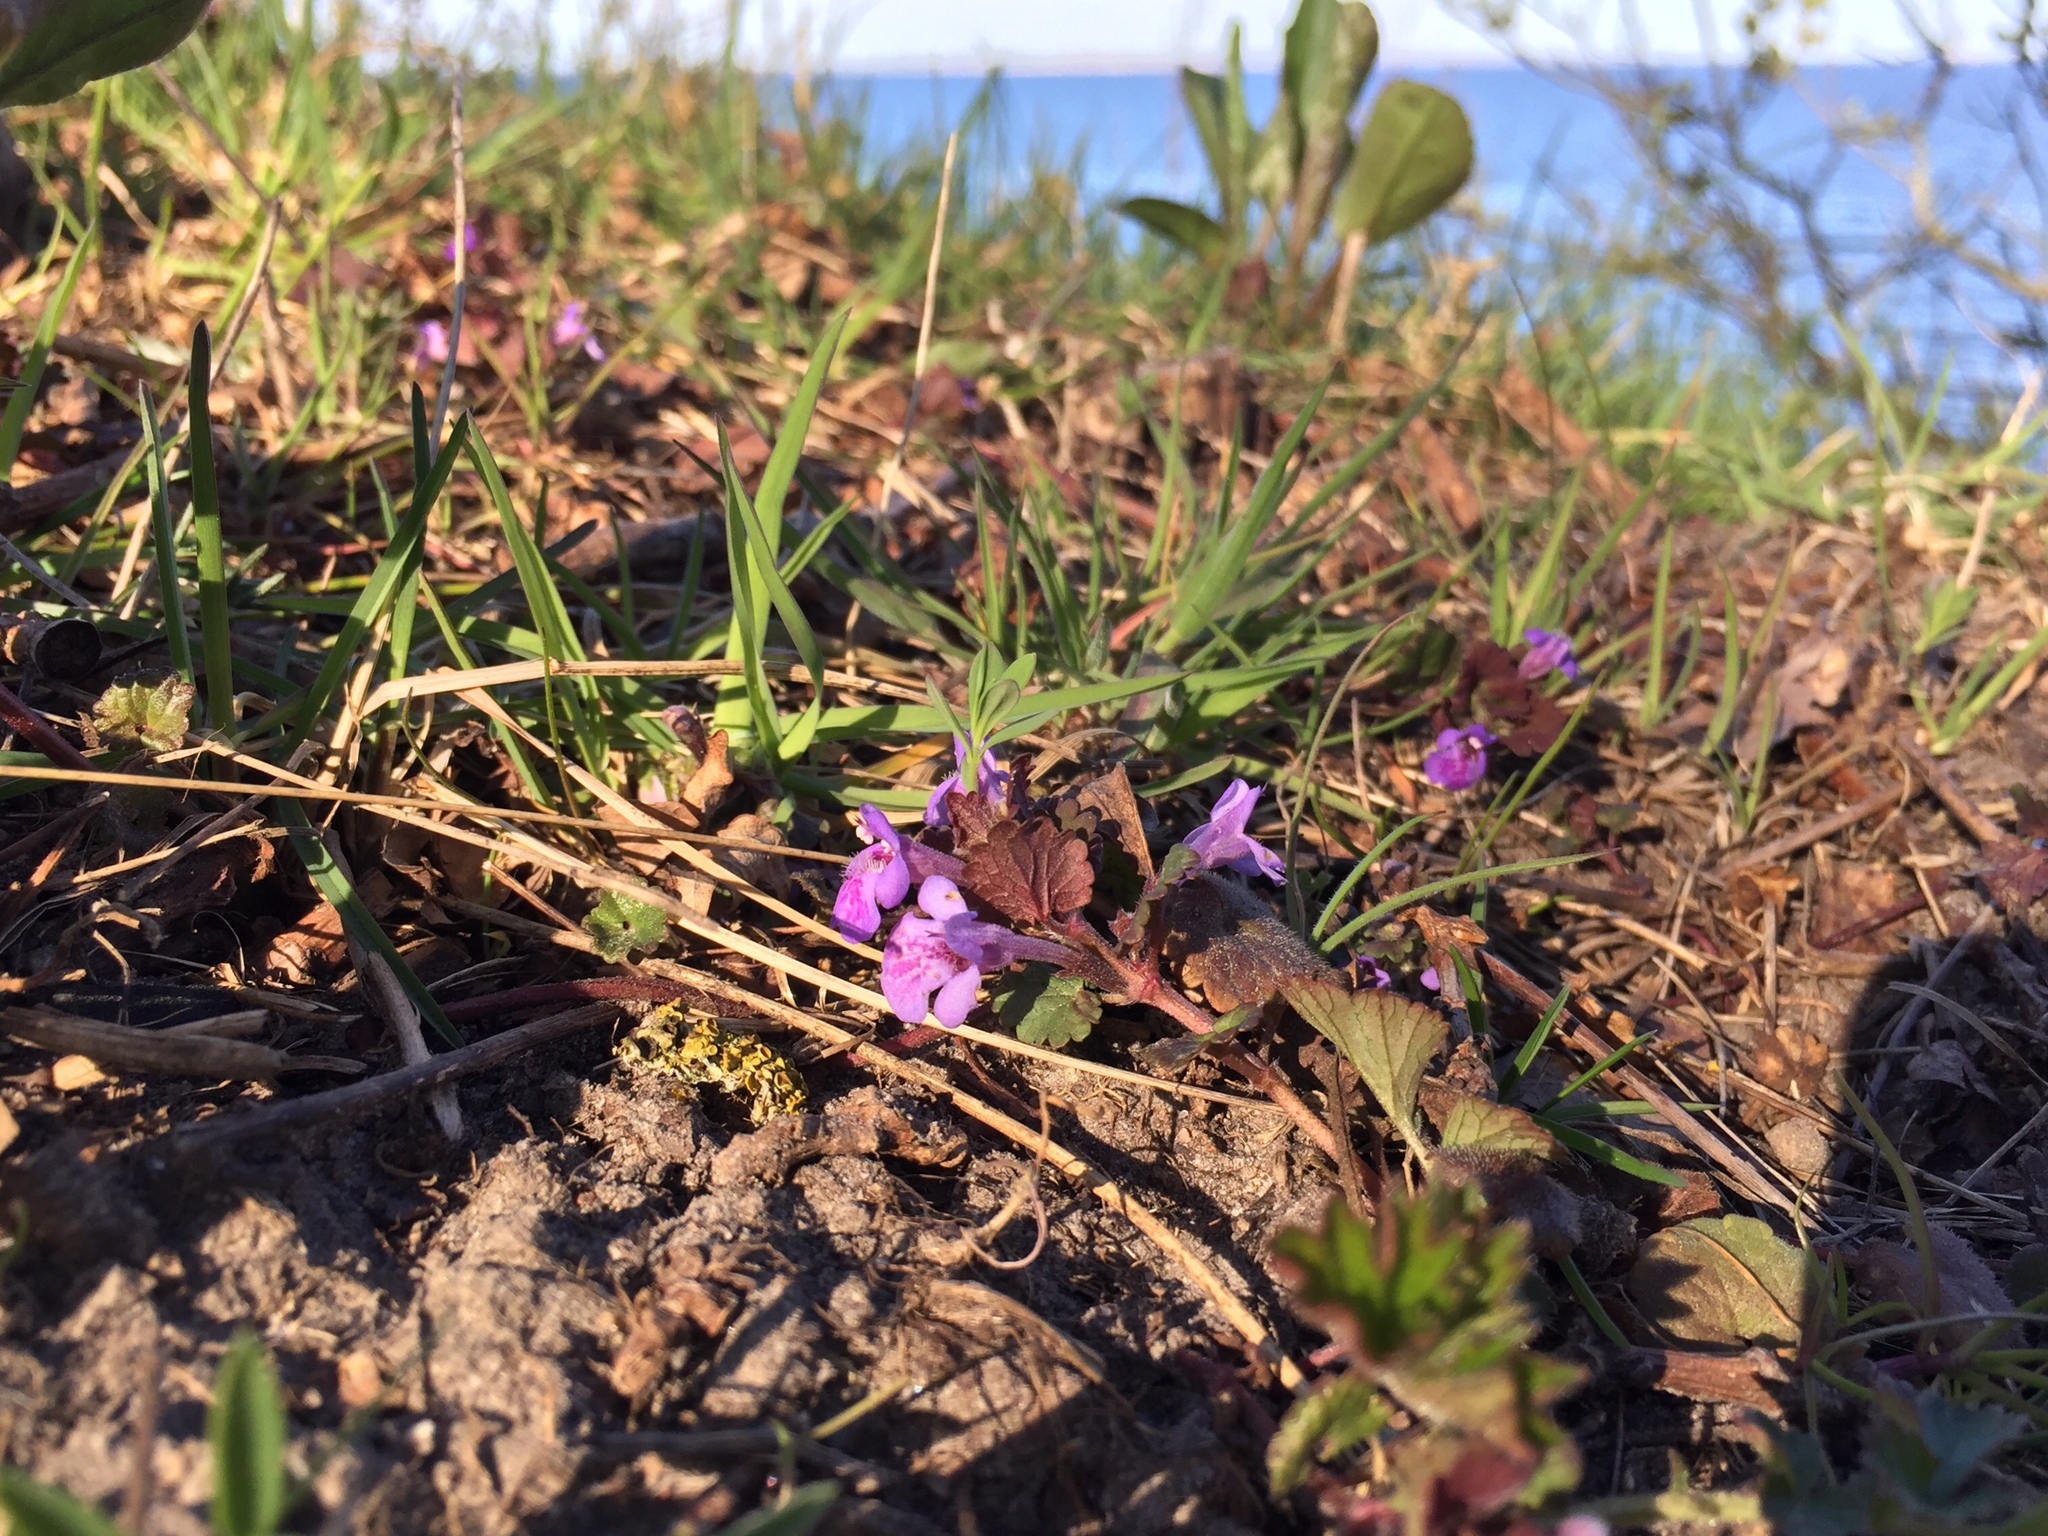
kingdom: Plantae
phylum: Tracheophyta
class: Magnoliopsida
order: Lamiales
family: Lamiaceae
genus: Glechoma
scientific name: Glechoma hederacea
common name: Ground ivy
